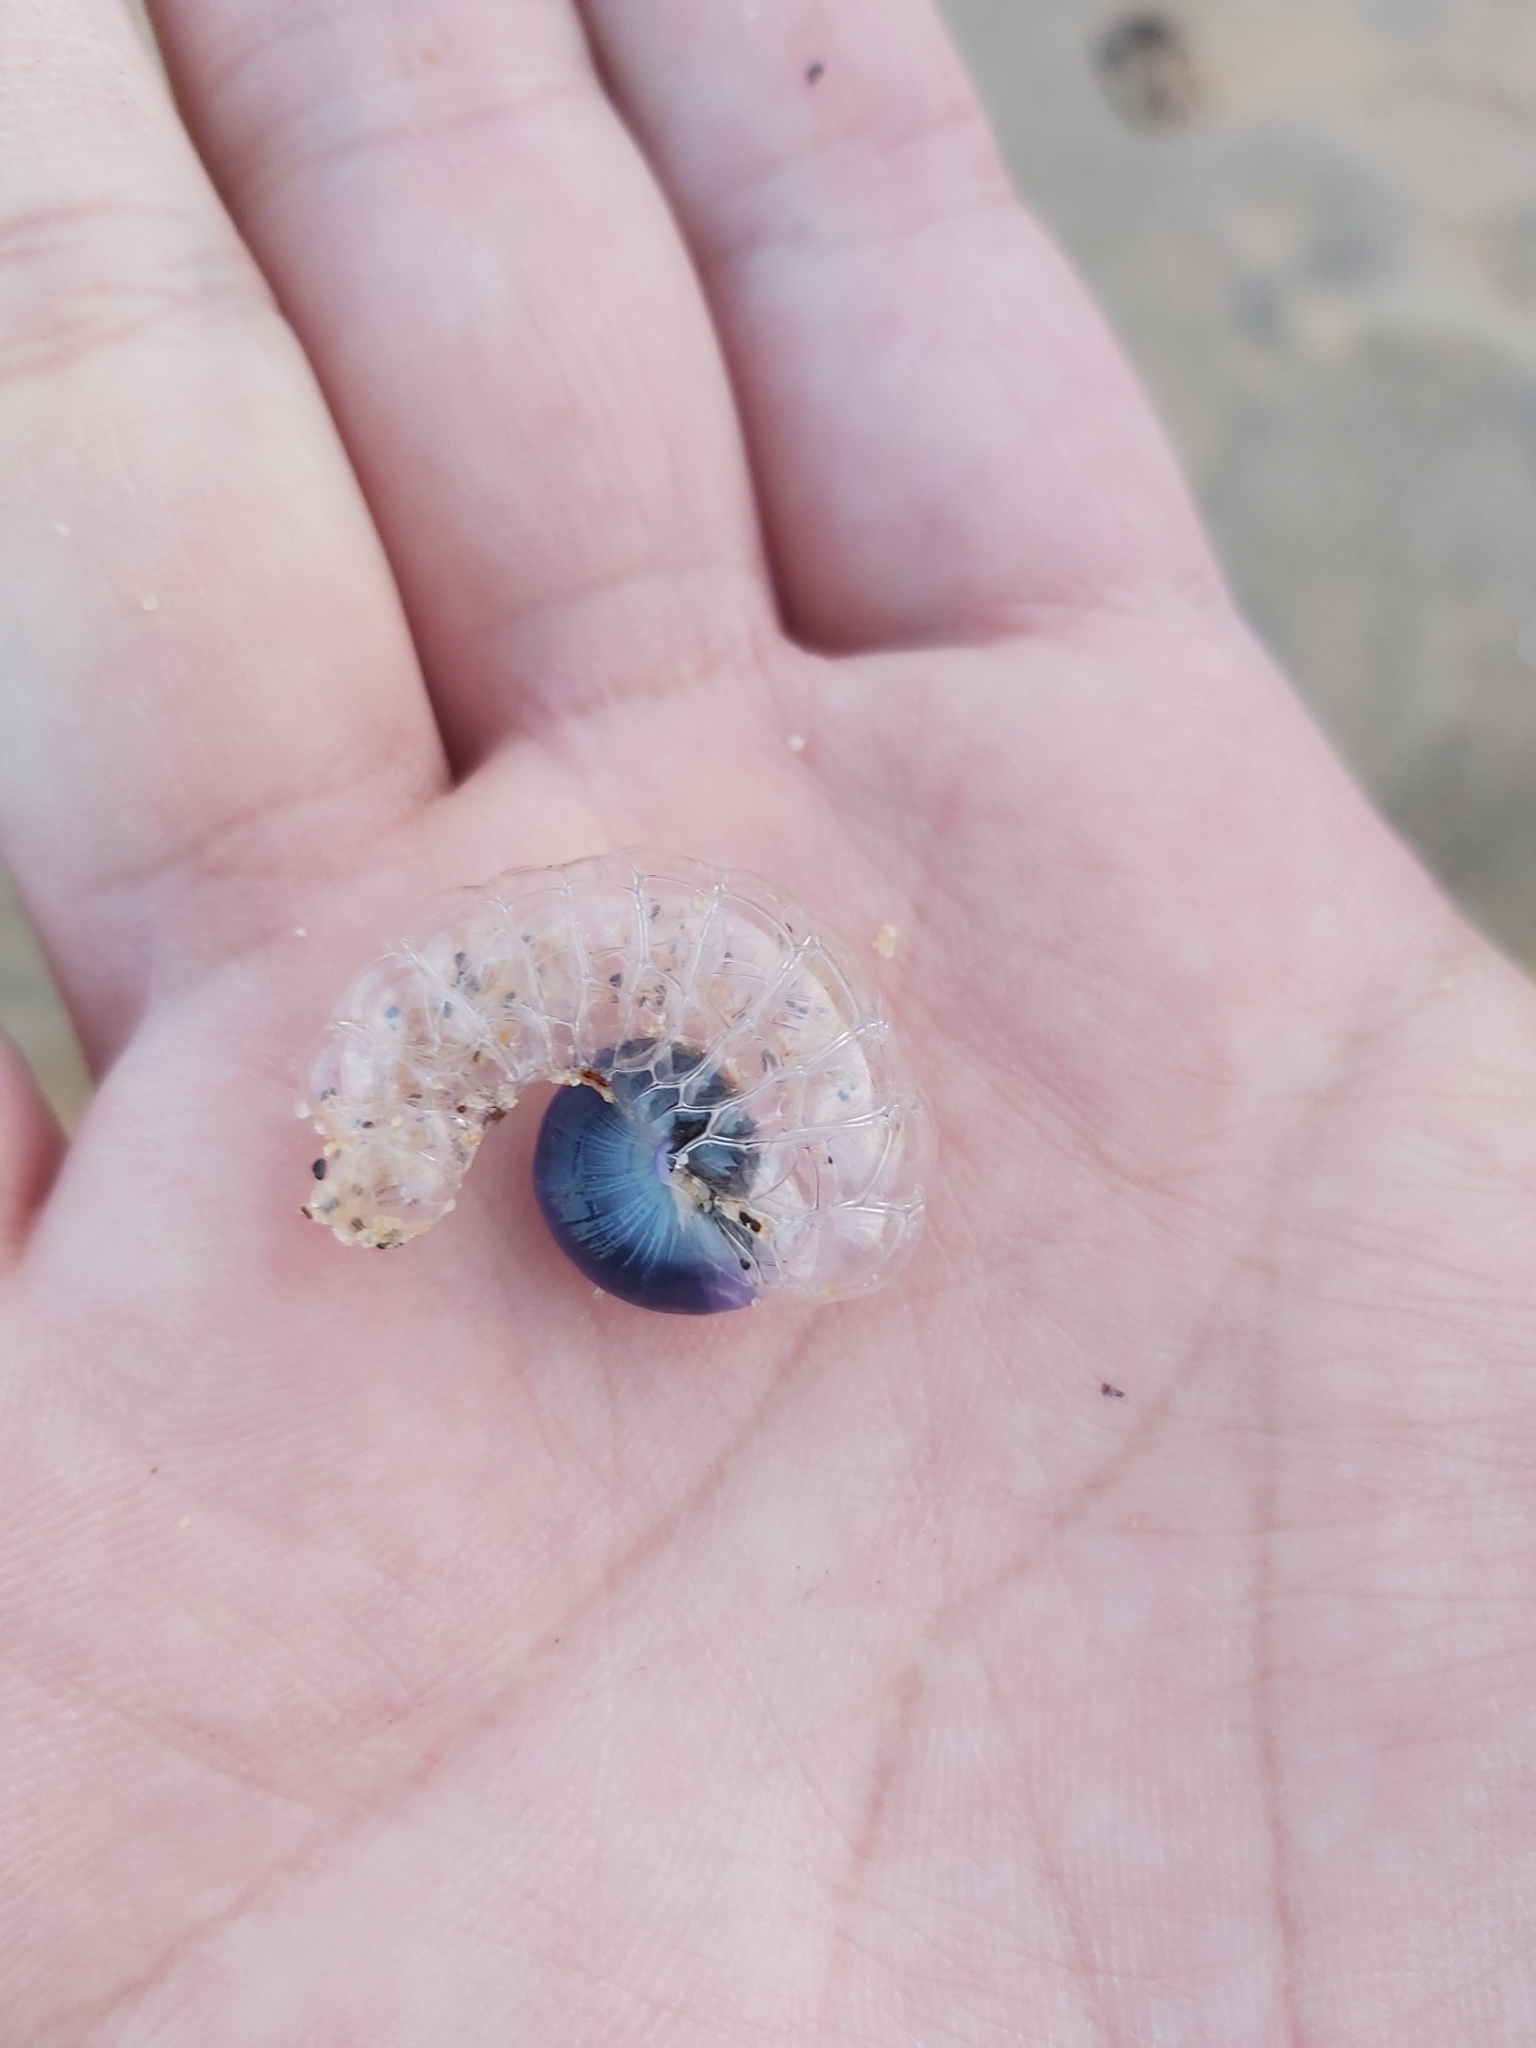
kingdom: Animalia
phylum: Mollusca
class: Gastropoda
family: Epitoniidae
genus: Janthina
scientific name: Janthina janthina
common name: Common janthina
